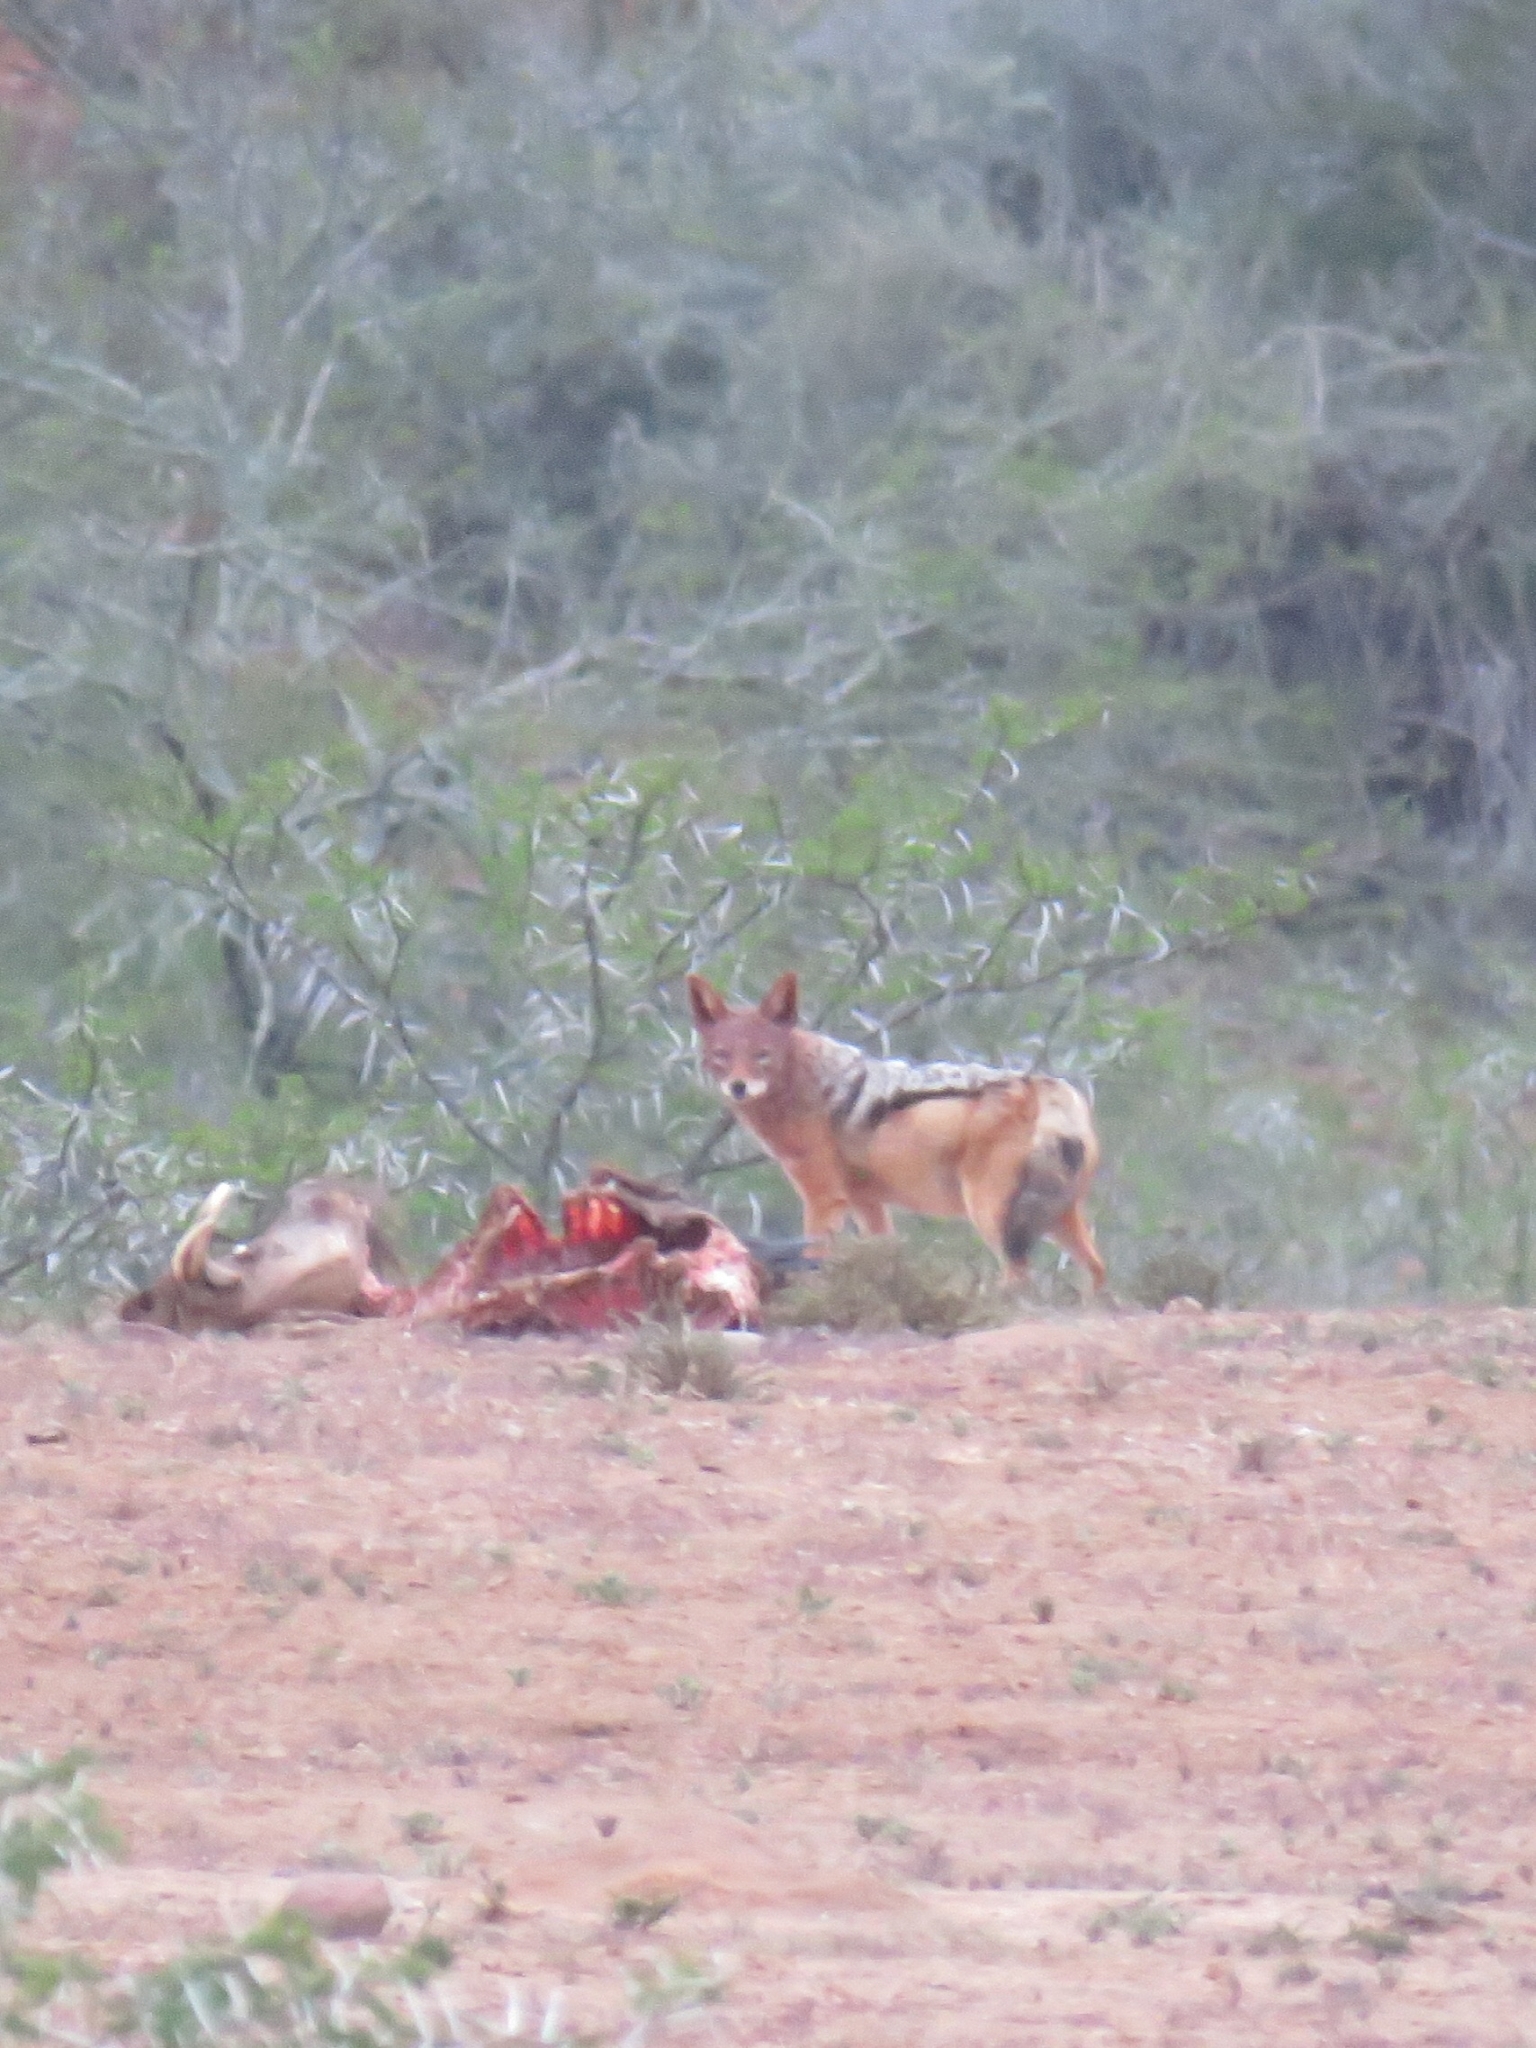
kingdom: Animalia
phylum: Chordata
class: Mammalia
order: Carnivora
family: Canidae
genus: Lupulella
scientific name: Lupulella
